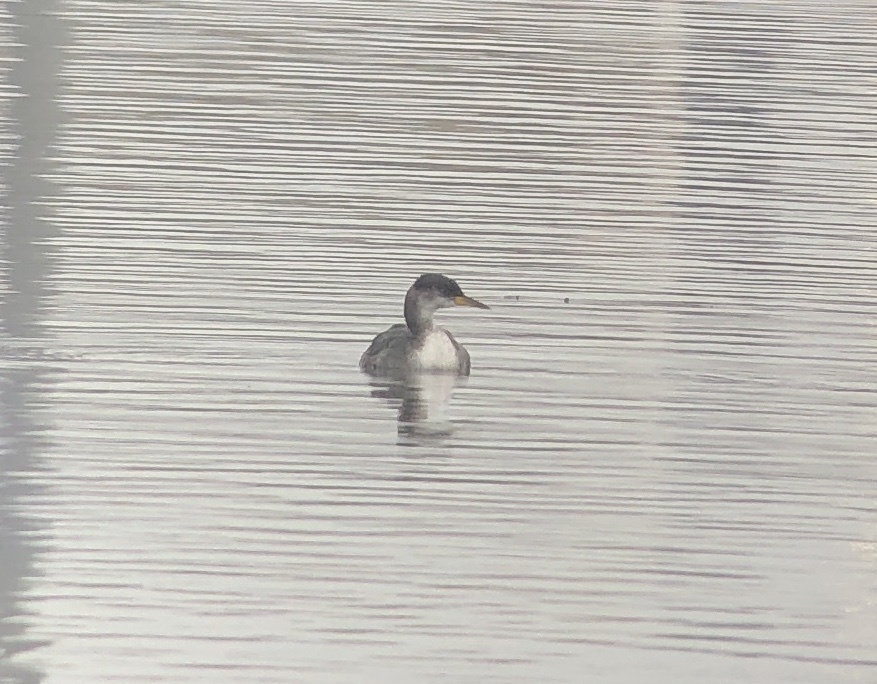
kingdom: Animalia
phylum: Chordata
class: Aves
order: Podicipediformes
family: Podicipedidae
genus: Podiceps
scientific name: Podiceps grisegena
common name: Red-necked grebe
